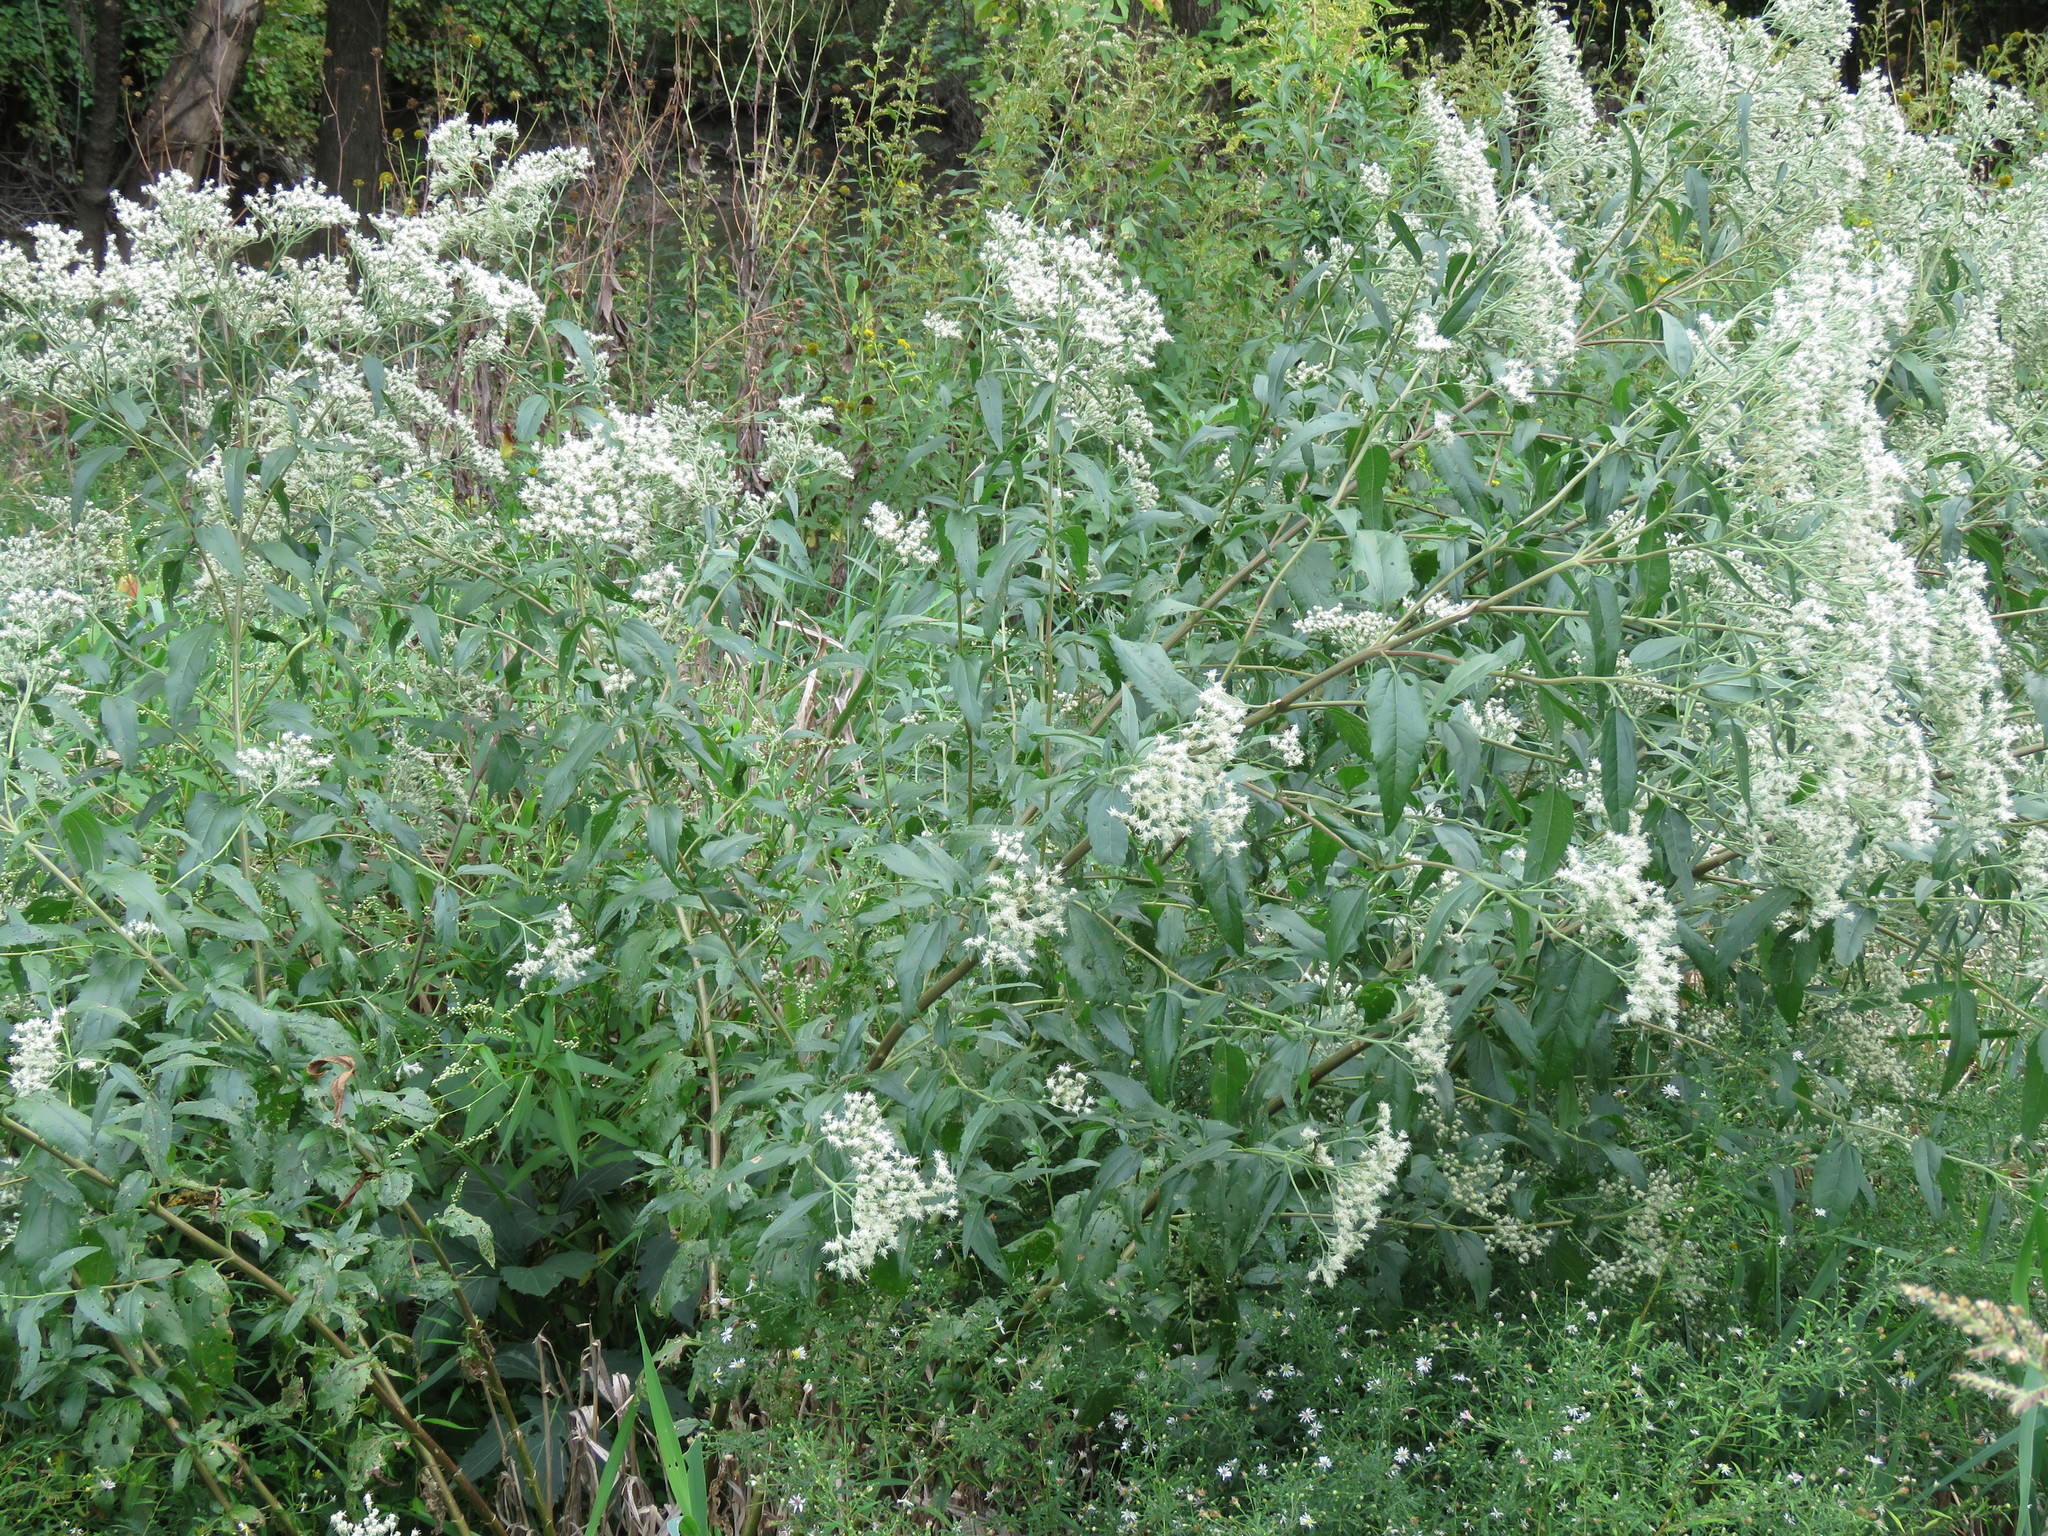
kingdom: Plantae
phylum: Tracheophyta
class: Magnoliopsida
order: Asterales
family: Asteraceae
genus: Eupatorium
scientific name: Eupatorium serotinum
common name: Late boneset
